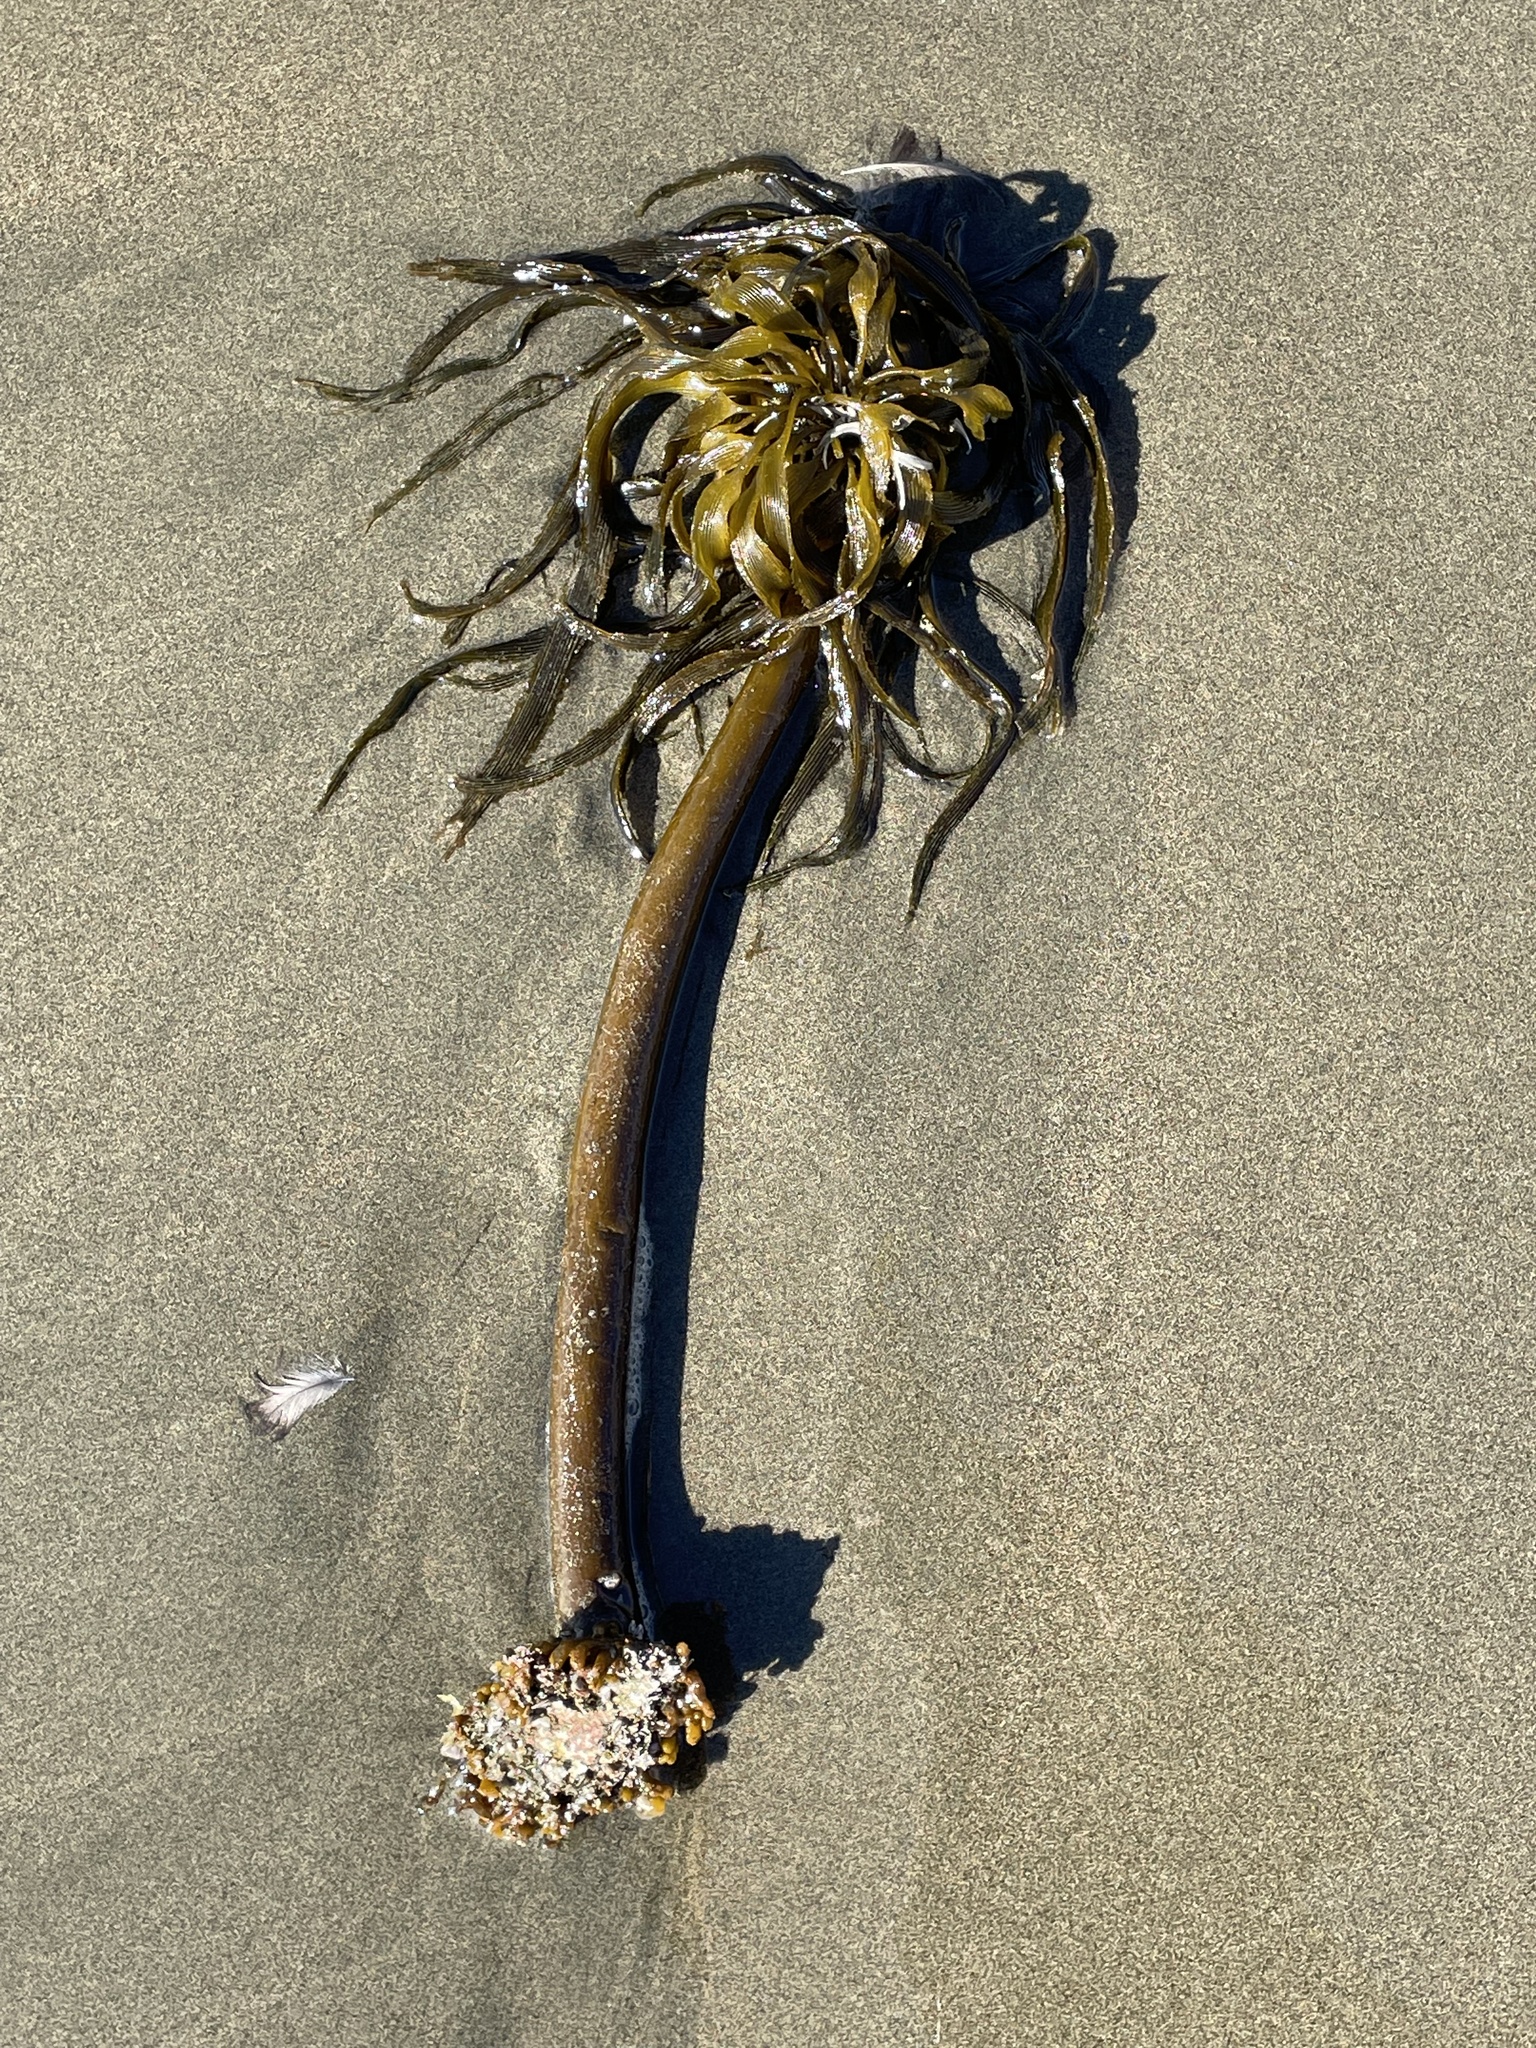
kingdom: Chromista
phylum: Ochrophyta
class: Phaeophyceae
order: Laminariales
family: Laminariaceae
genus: Postelsia
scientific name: Postelsia palmiformis
